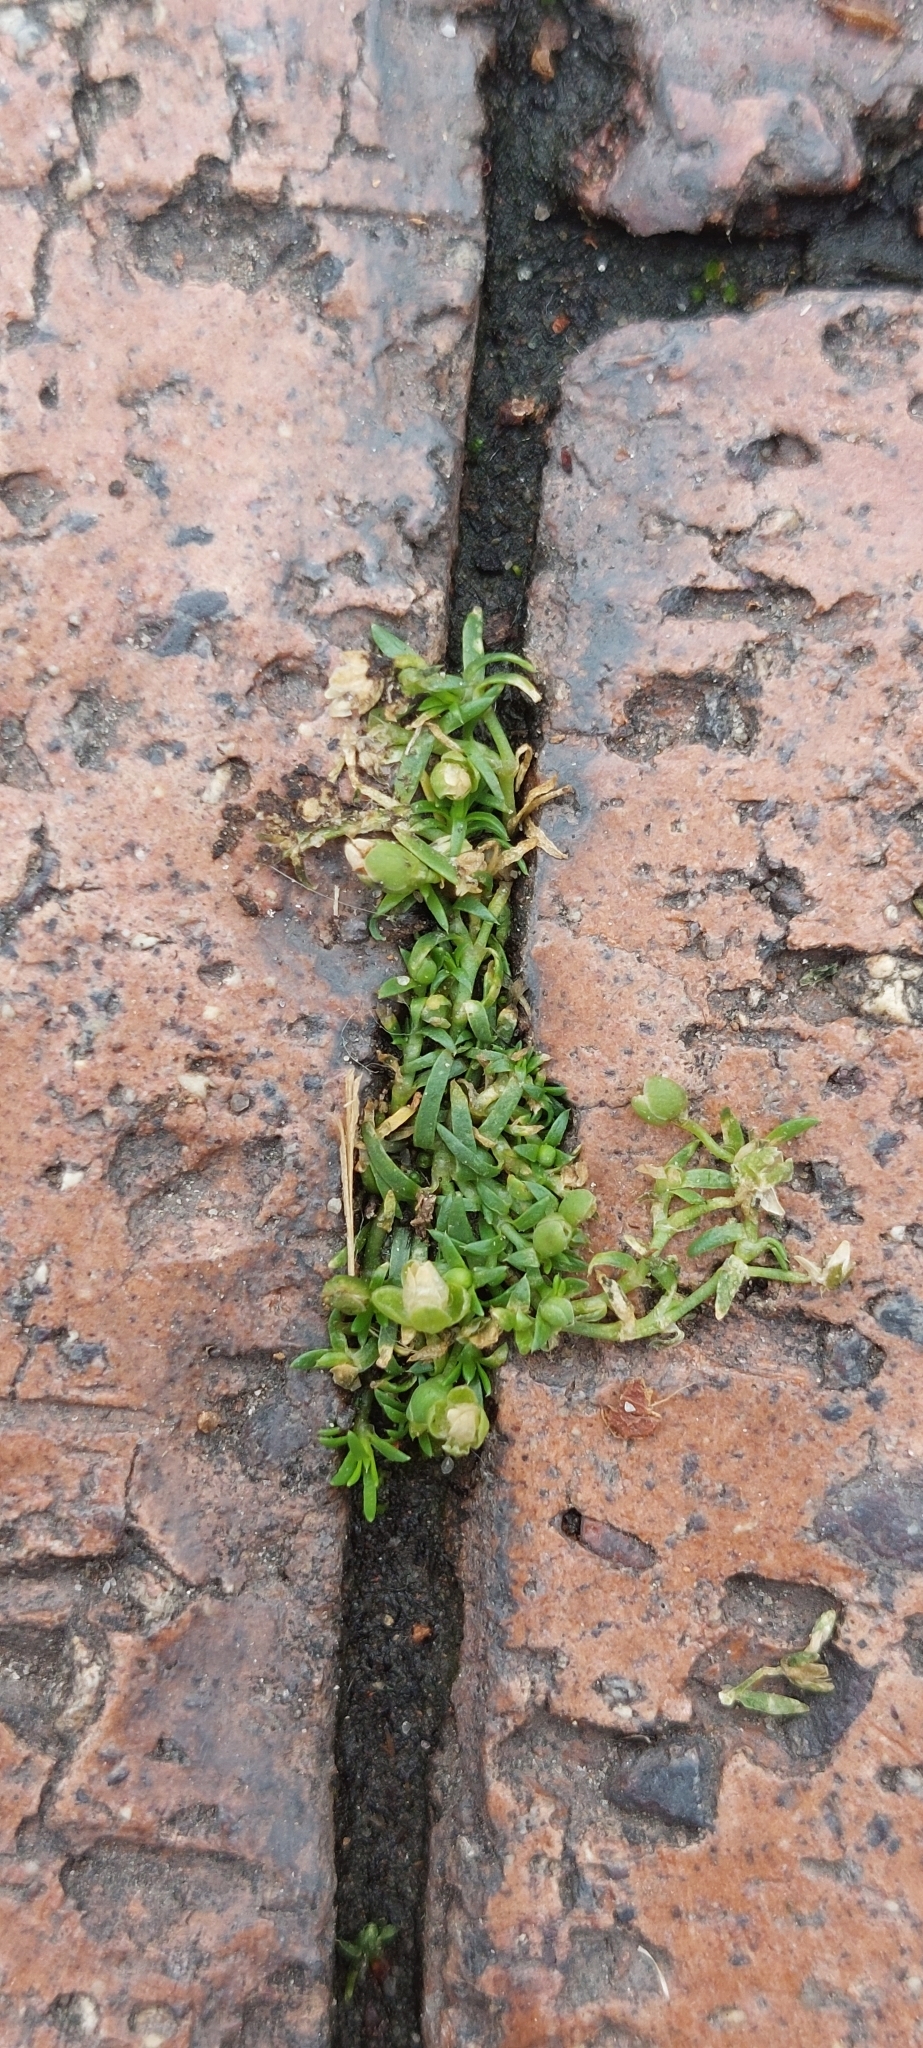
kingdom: Plantae
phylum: Tracheophyta
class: Magnoliopsida
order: Caryophyllales
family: Caryophyllaceae
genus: Sagina
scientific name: Sagina procumbens
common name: Procumbent pearlwort
